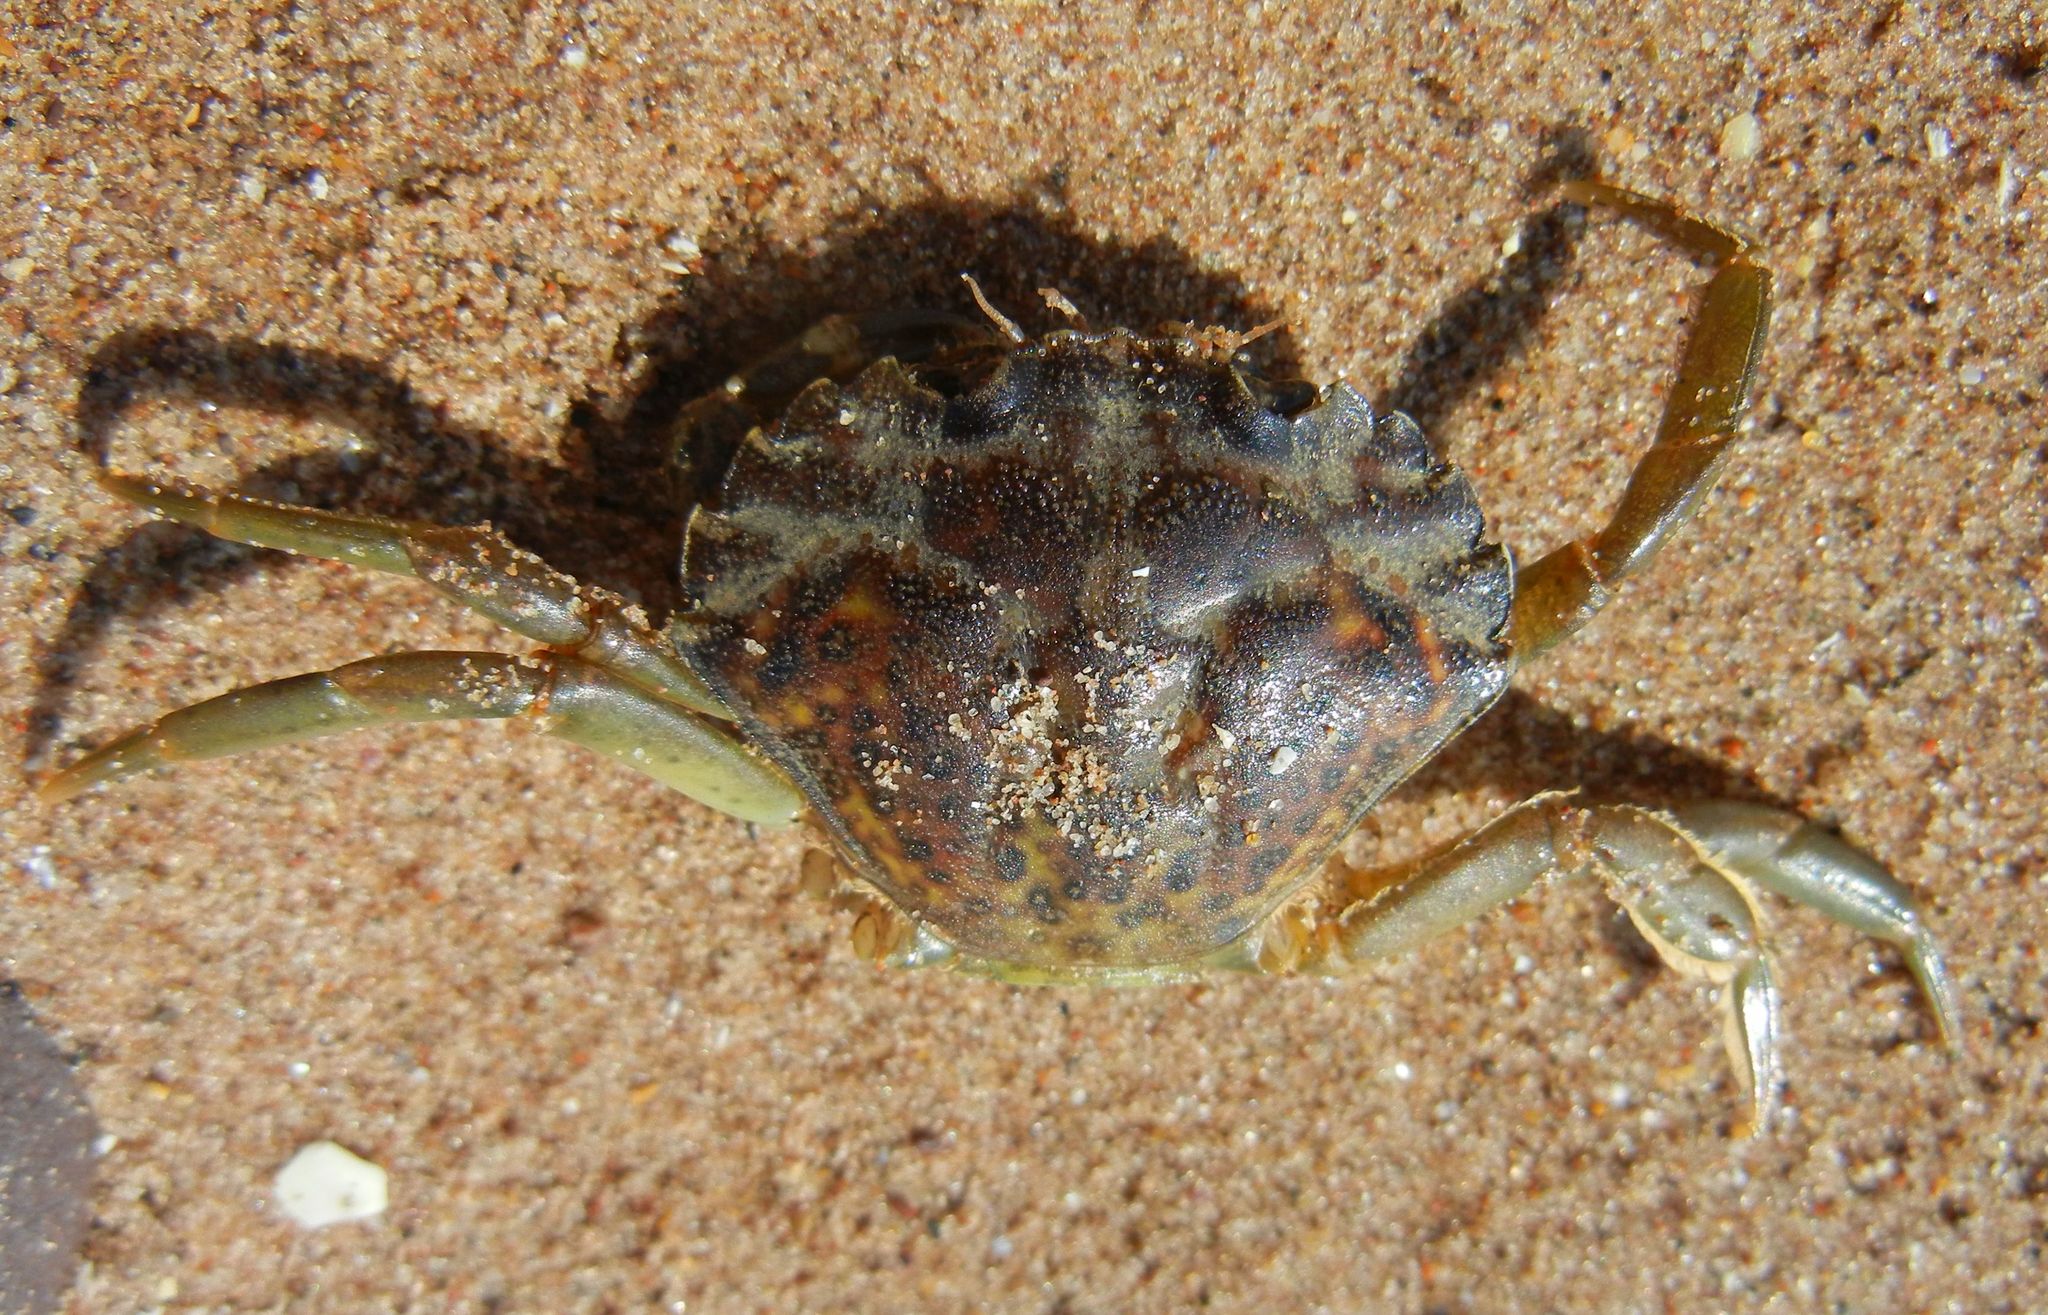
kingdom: Animalia
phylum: Arthropoda
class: Malacostraca
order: Decapoda
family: Carcinidae
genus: Carcinus
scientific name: Carcinus maenas
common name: European green crab
